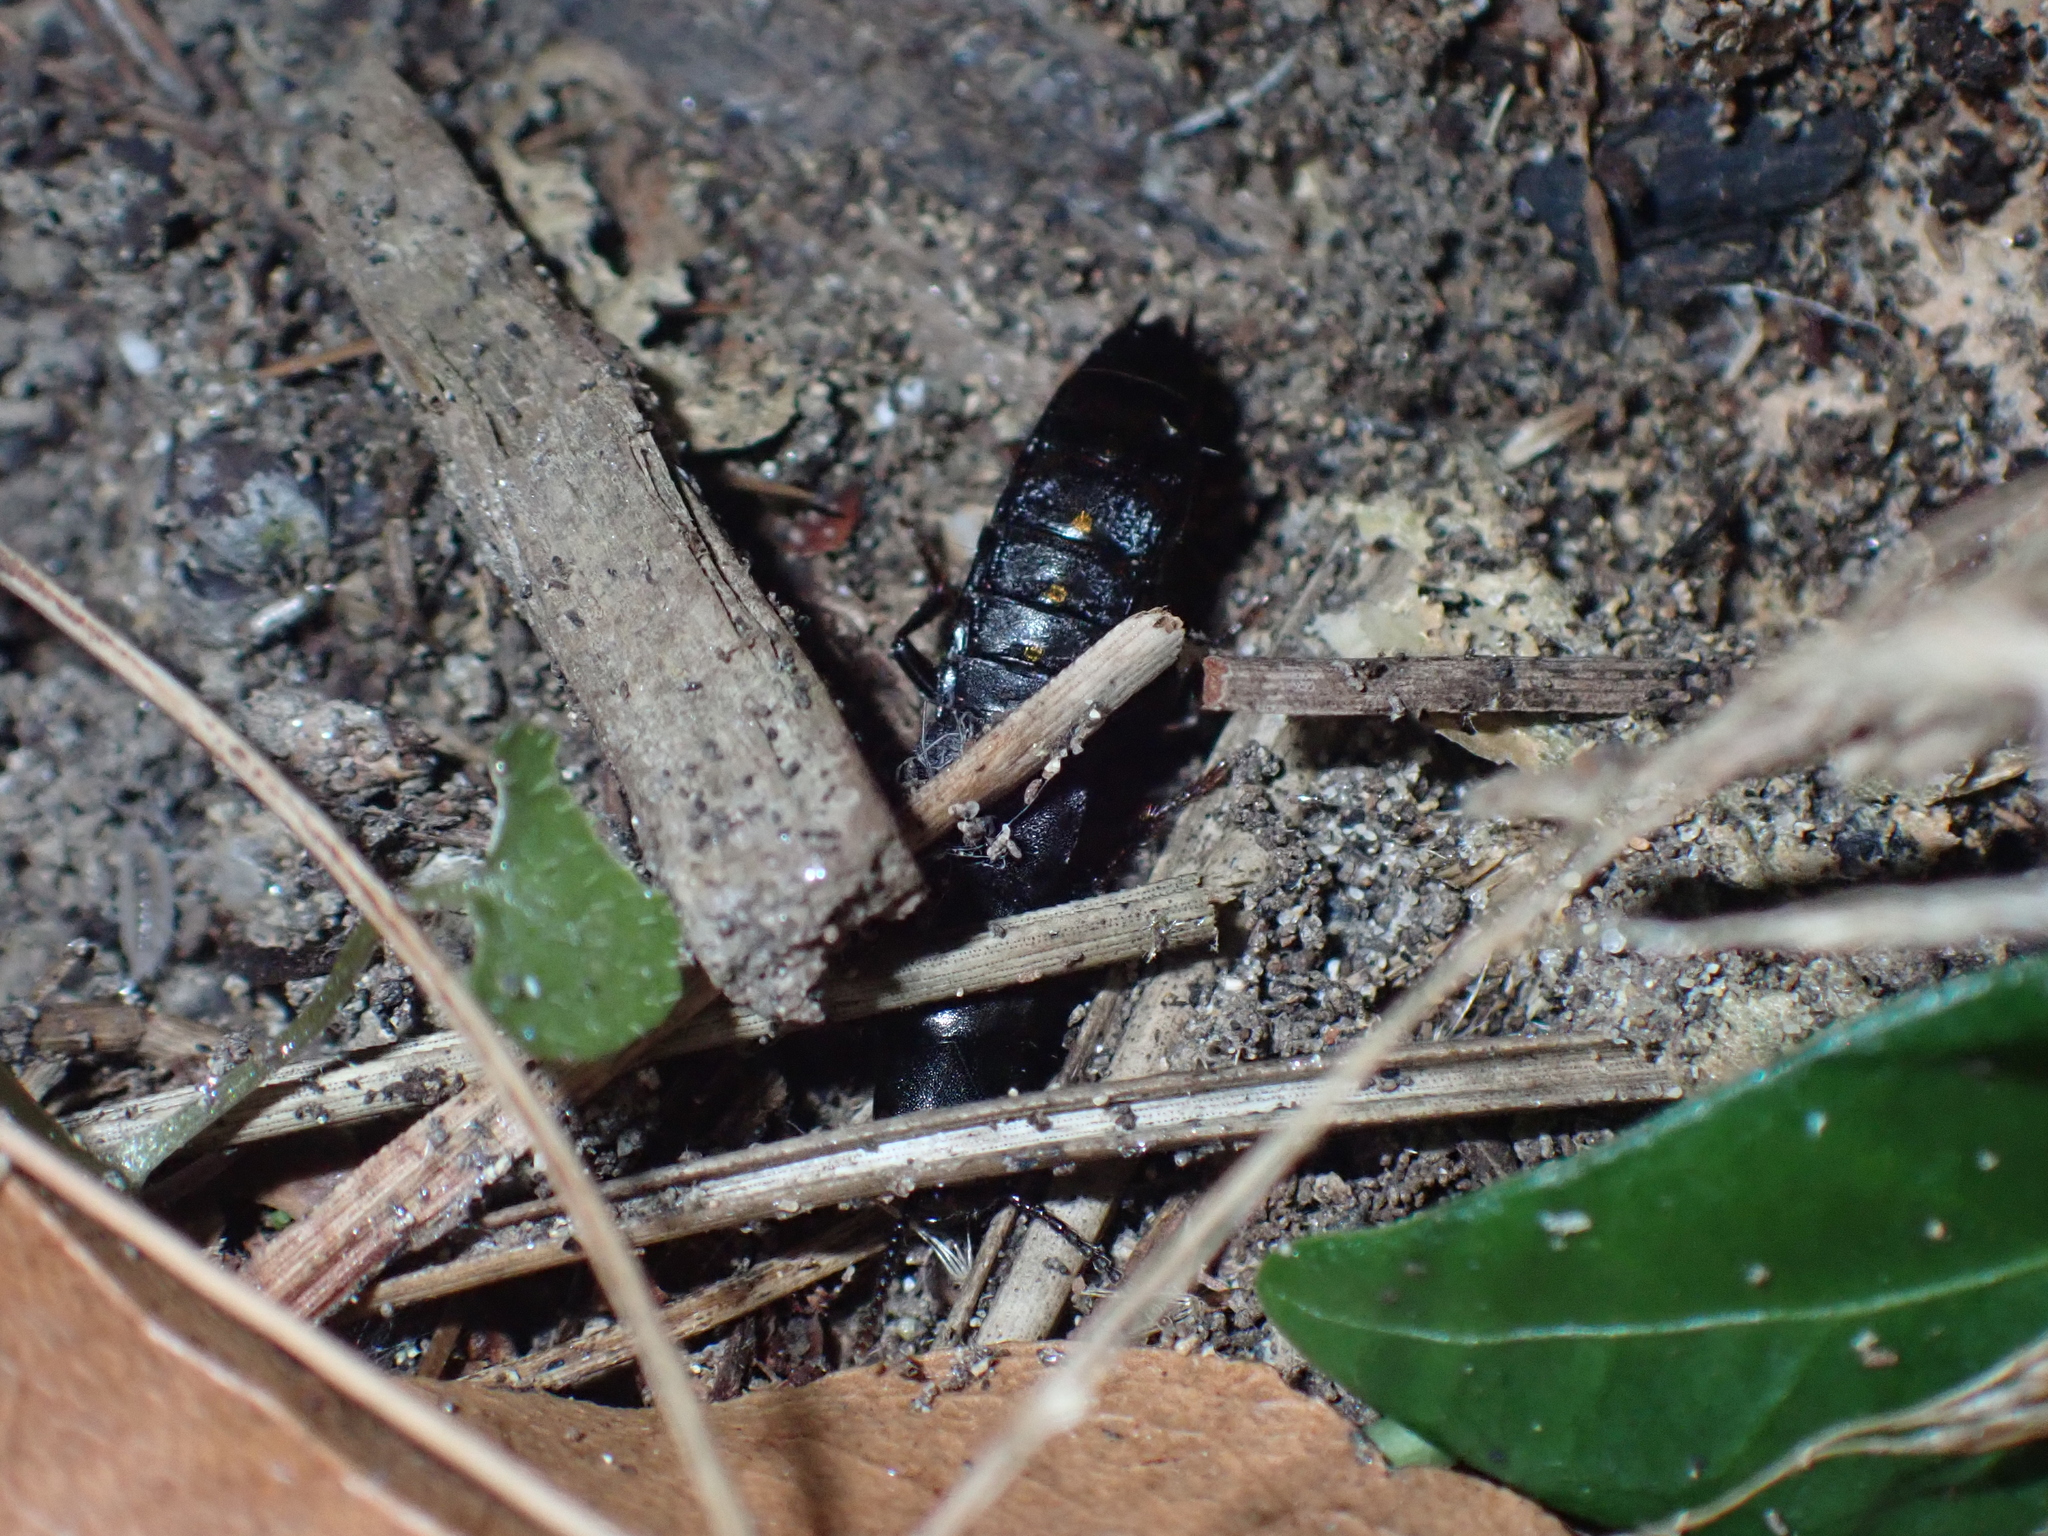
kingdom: Animalia
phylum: Arthropoda
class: Insecta
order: Coleoptera
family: Staphylinidae
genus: Ocypus
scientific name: Ocypus aethiops
